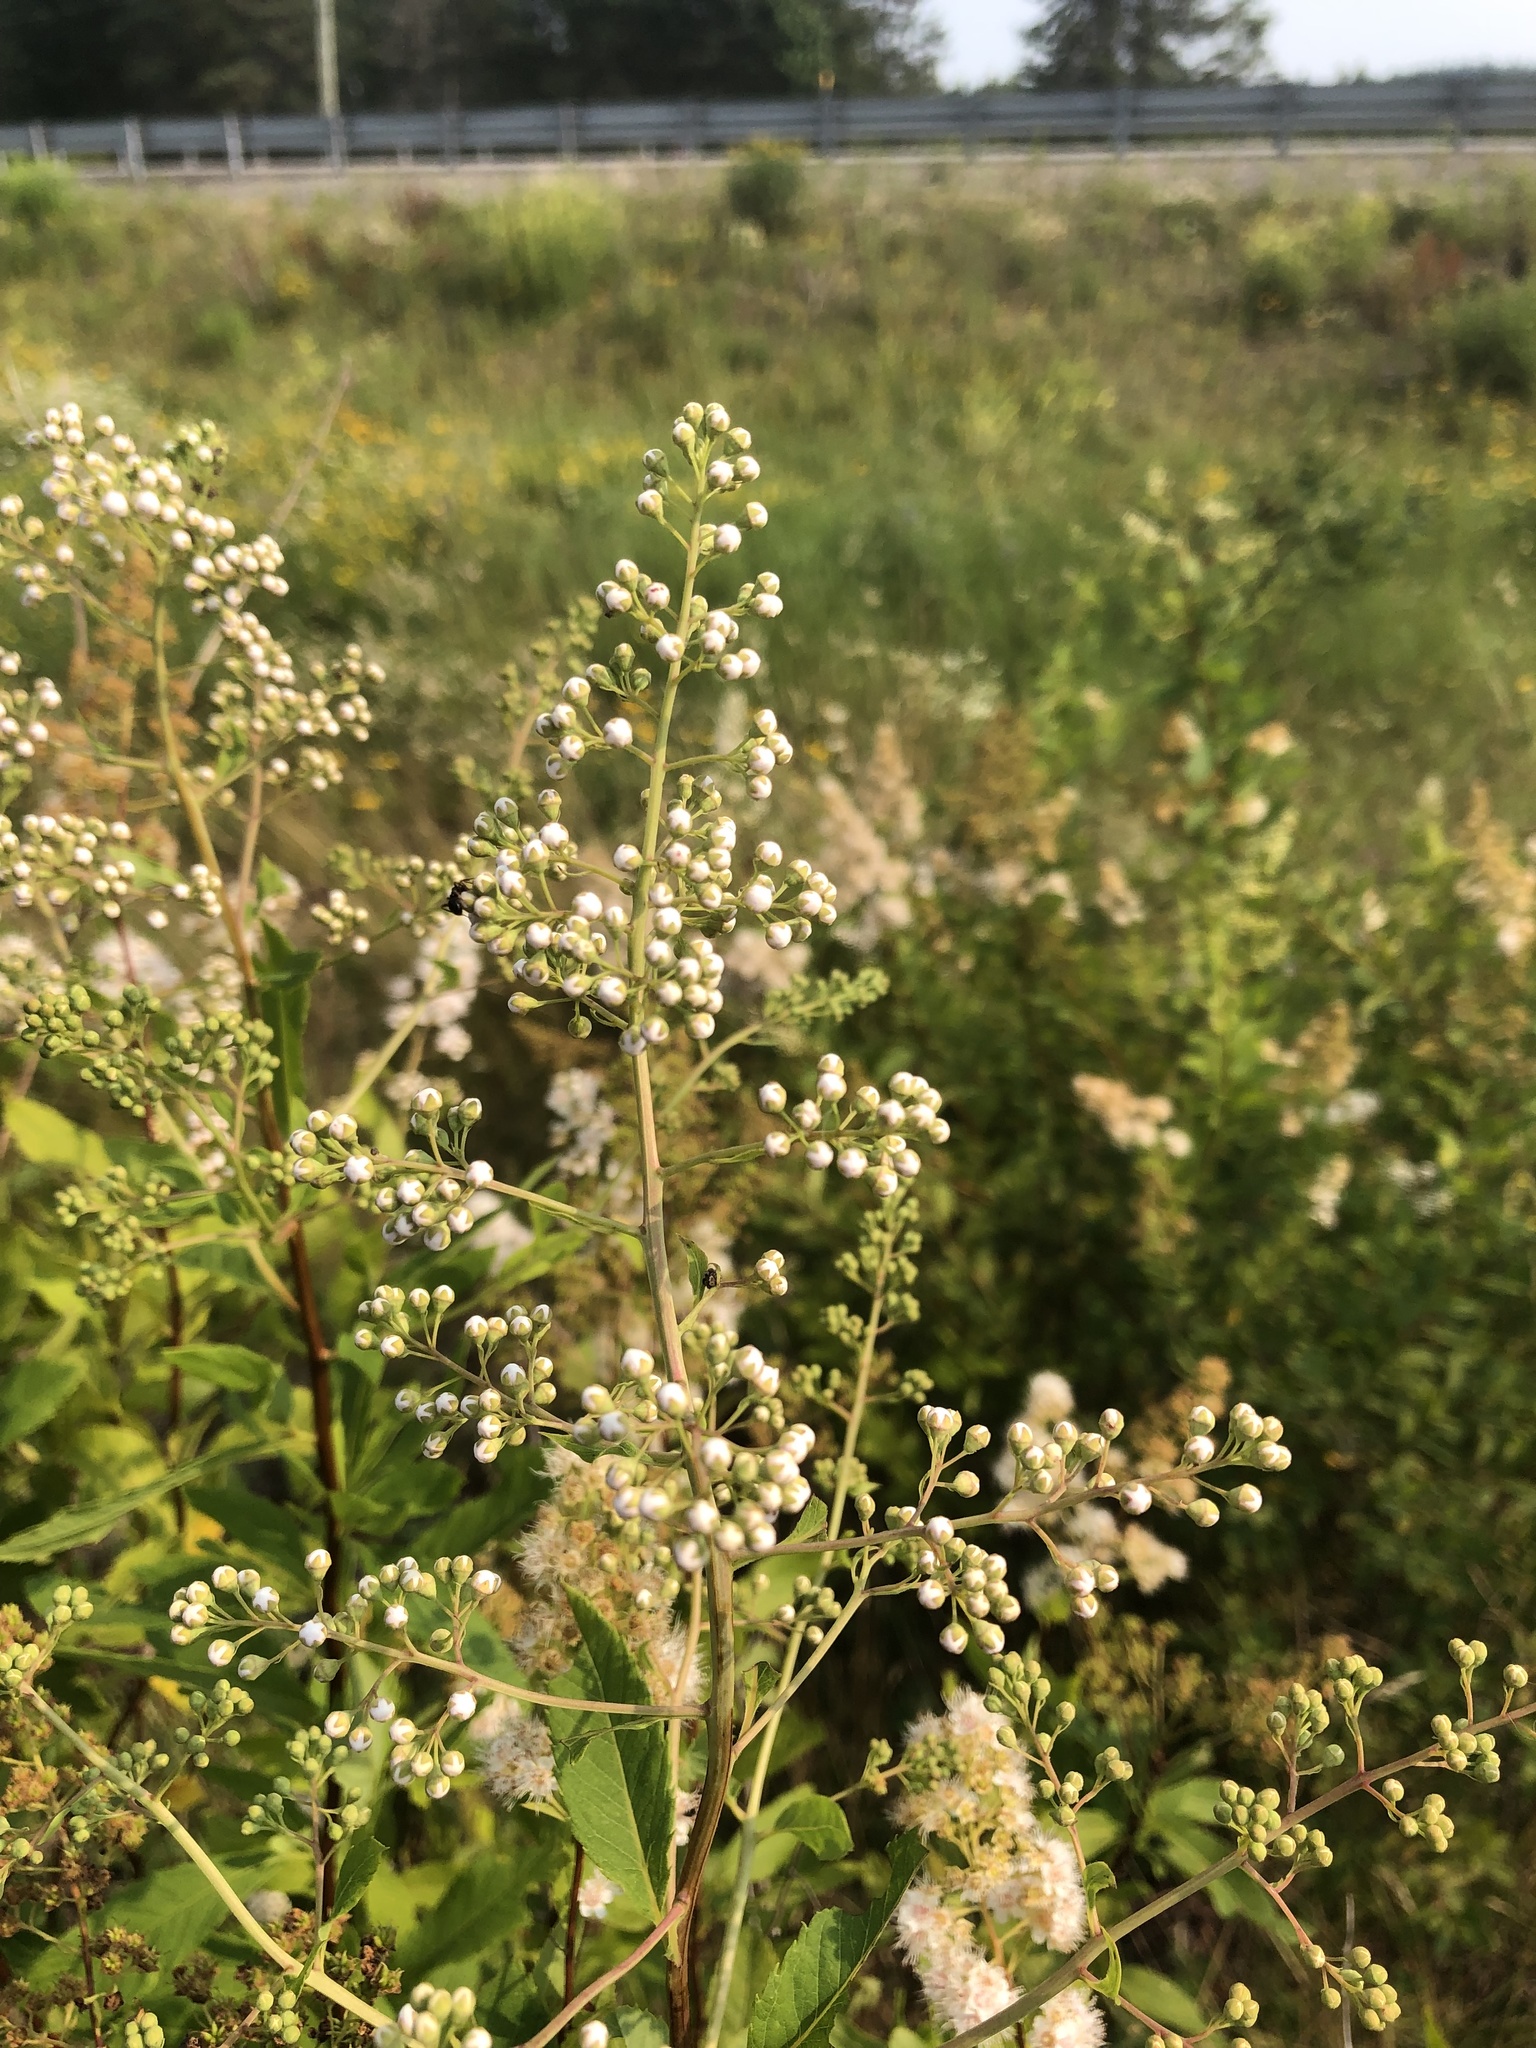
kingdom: Plantae
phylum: Tracheophyta
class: Magnoliopsida
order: Rosales
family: Rosaceae
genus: Spiraea
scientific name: Spiraea alba
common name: Pale bridewort
